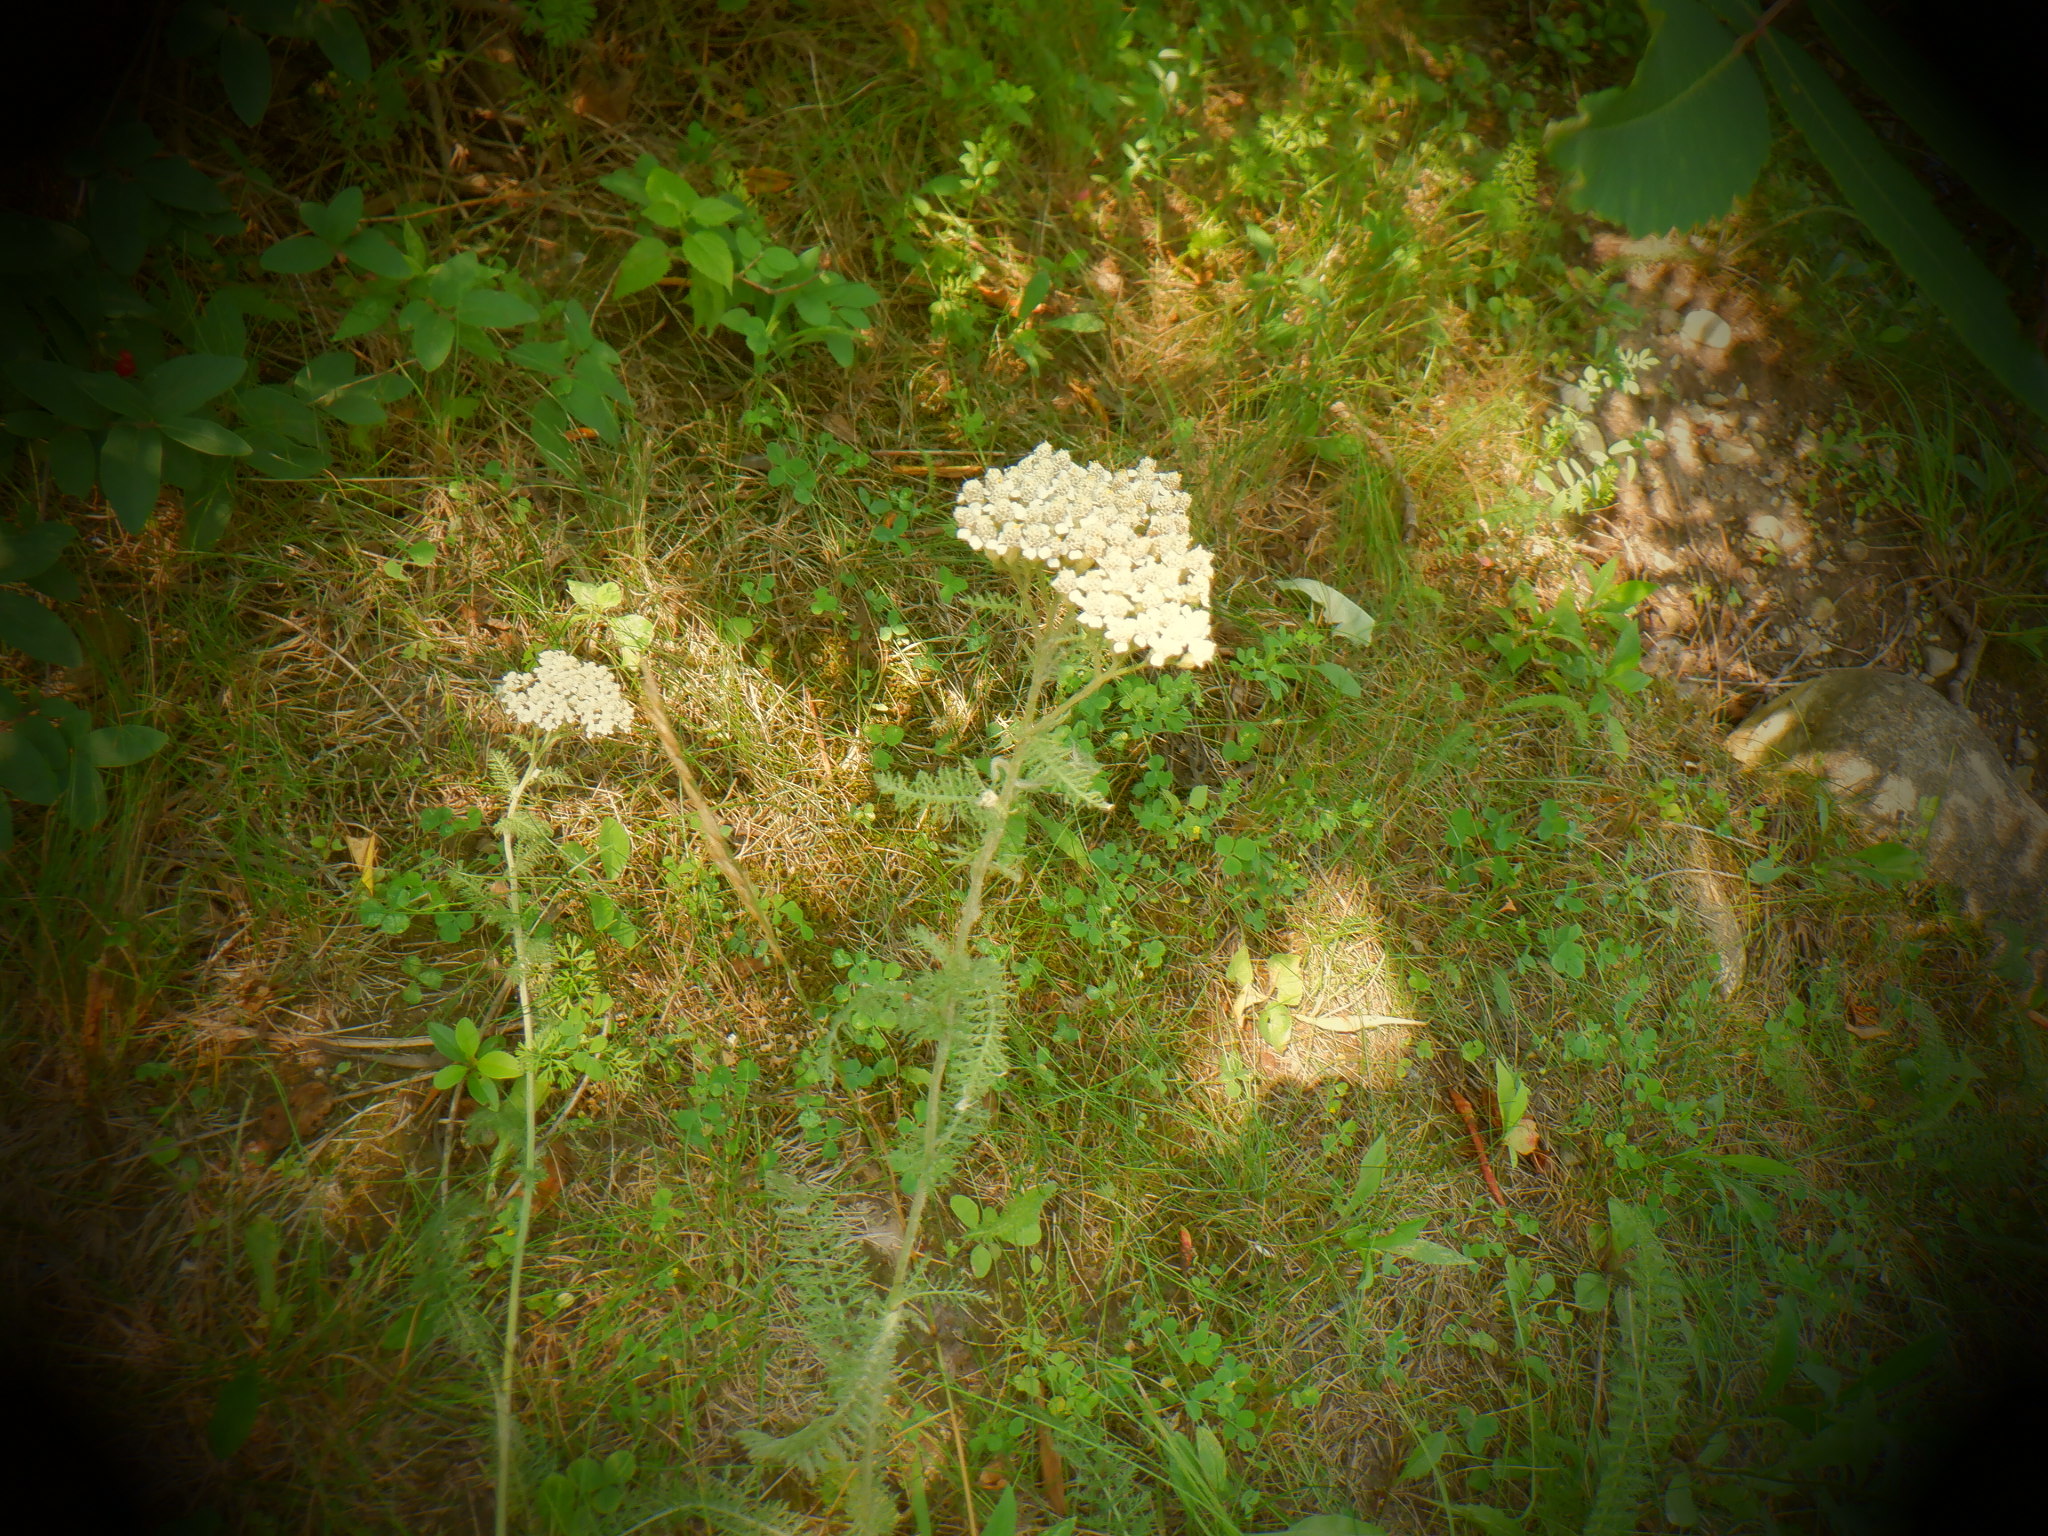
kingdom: Plantae
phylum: Tracheophyta
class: Magnoliopsida
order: Asterales
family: Asteraceae
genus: Achillea
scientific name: Achillea millefolium
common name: Yarrow
